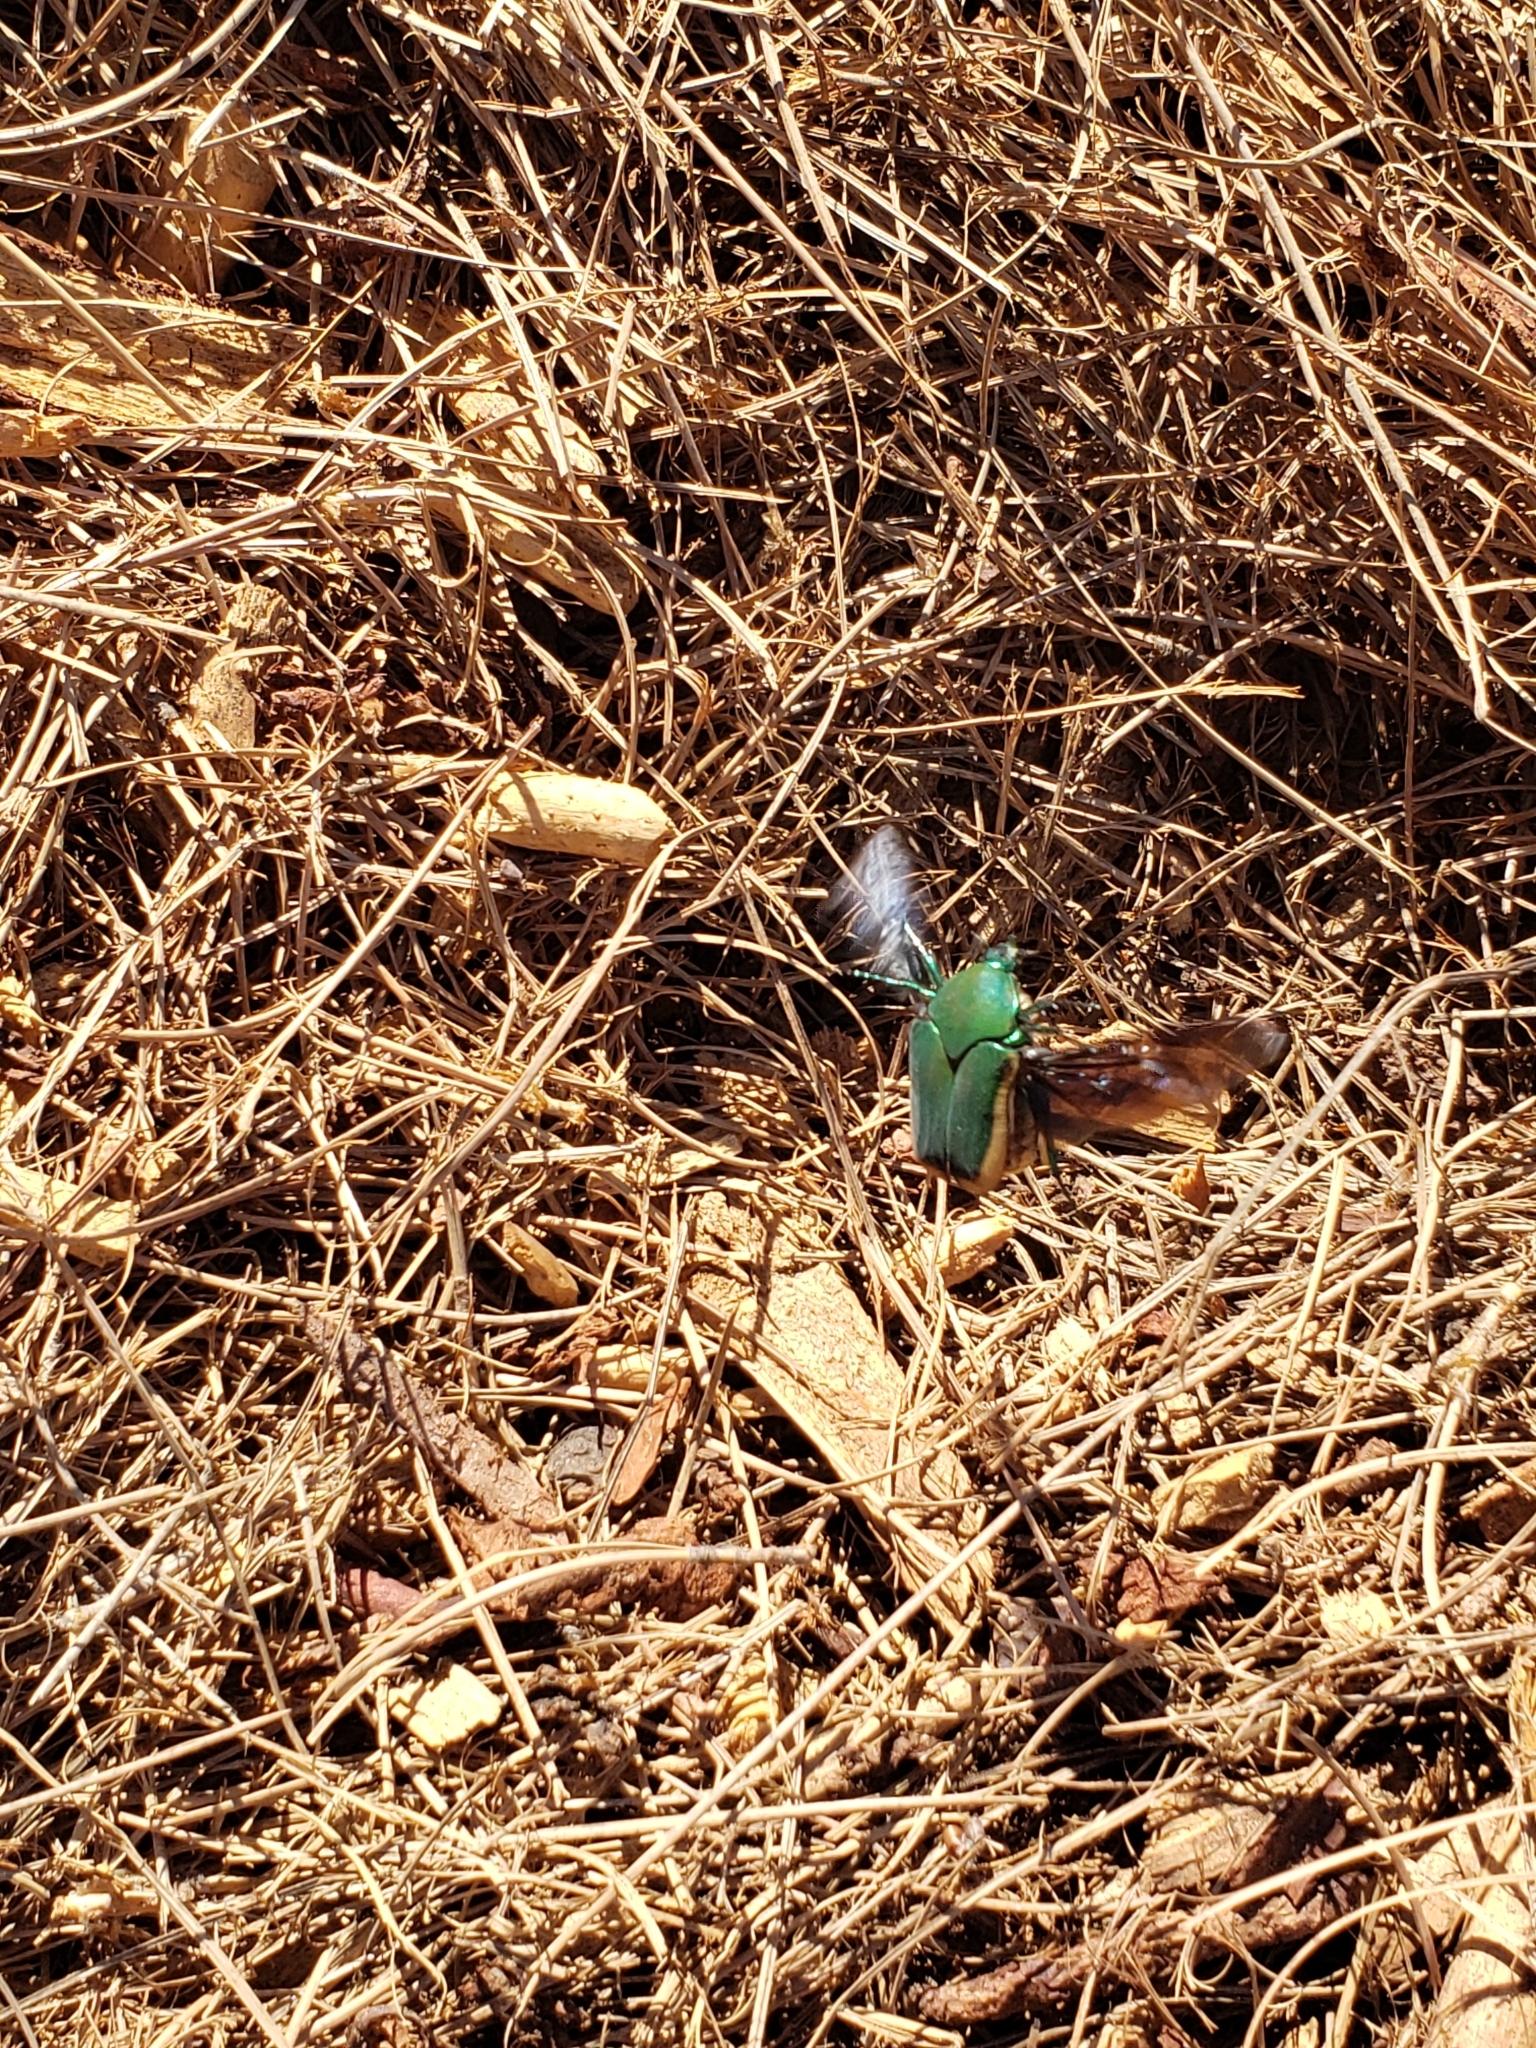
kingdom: Animalia
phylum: Arthropoda
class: Insecta
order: Coleoptera
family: Scarabaeidae
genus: Cotinis
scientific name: Cotinis mutabilis
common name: Figeater beetle
